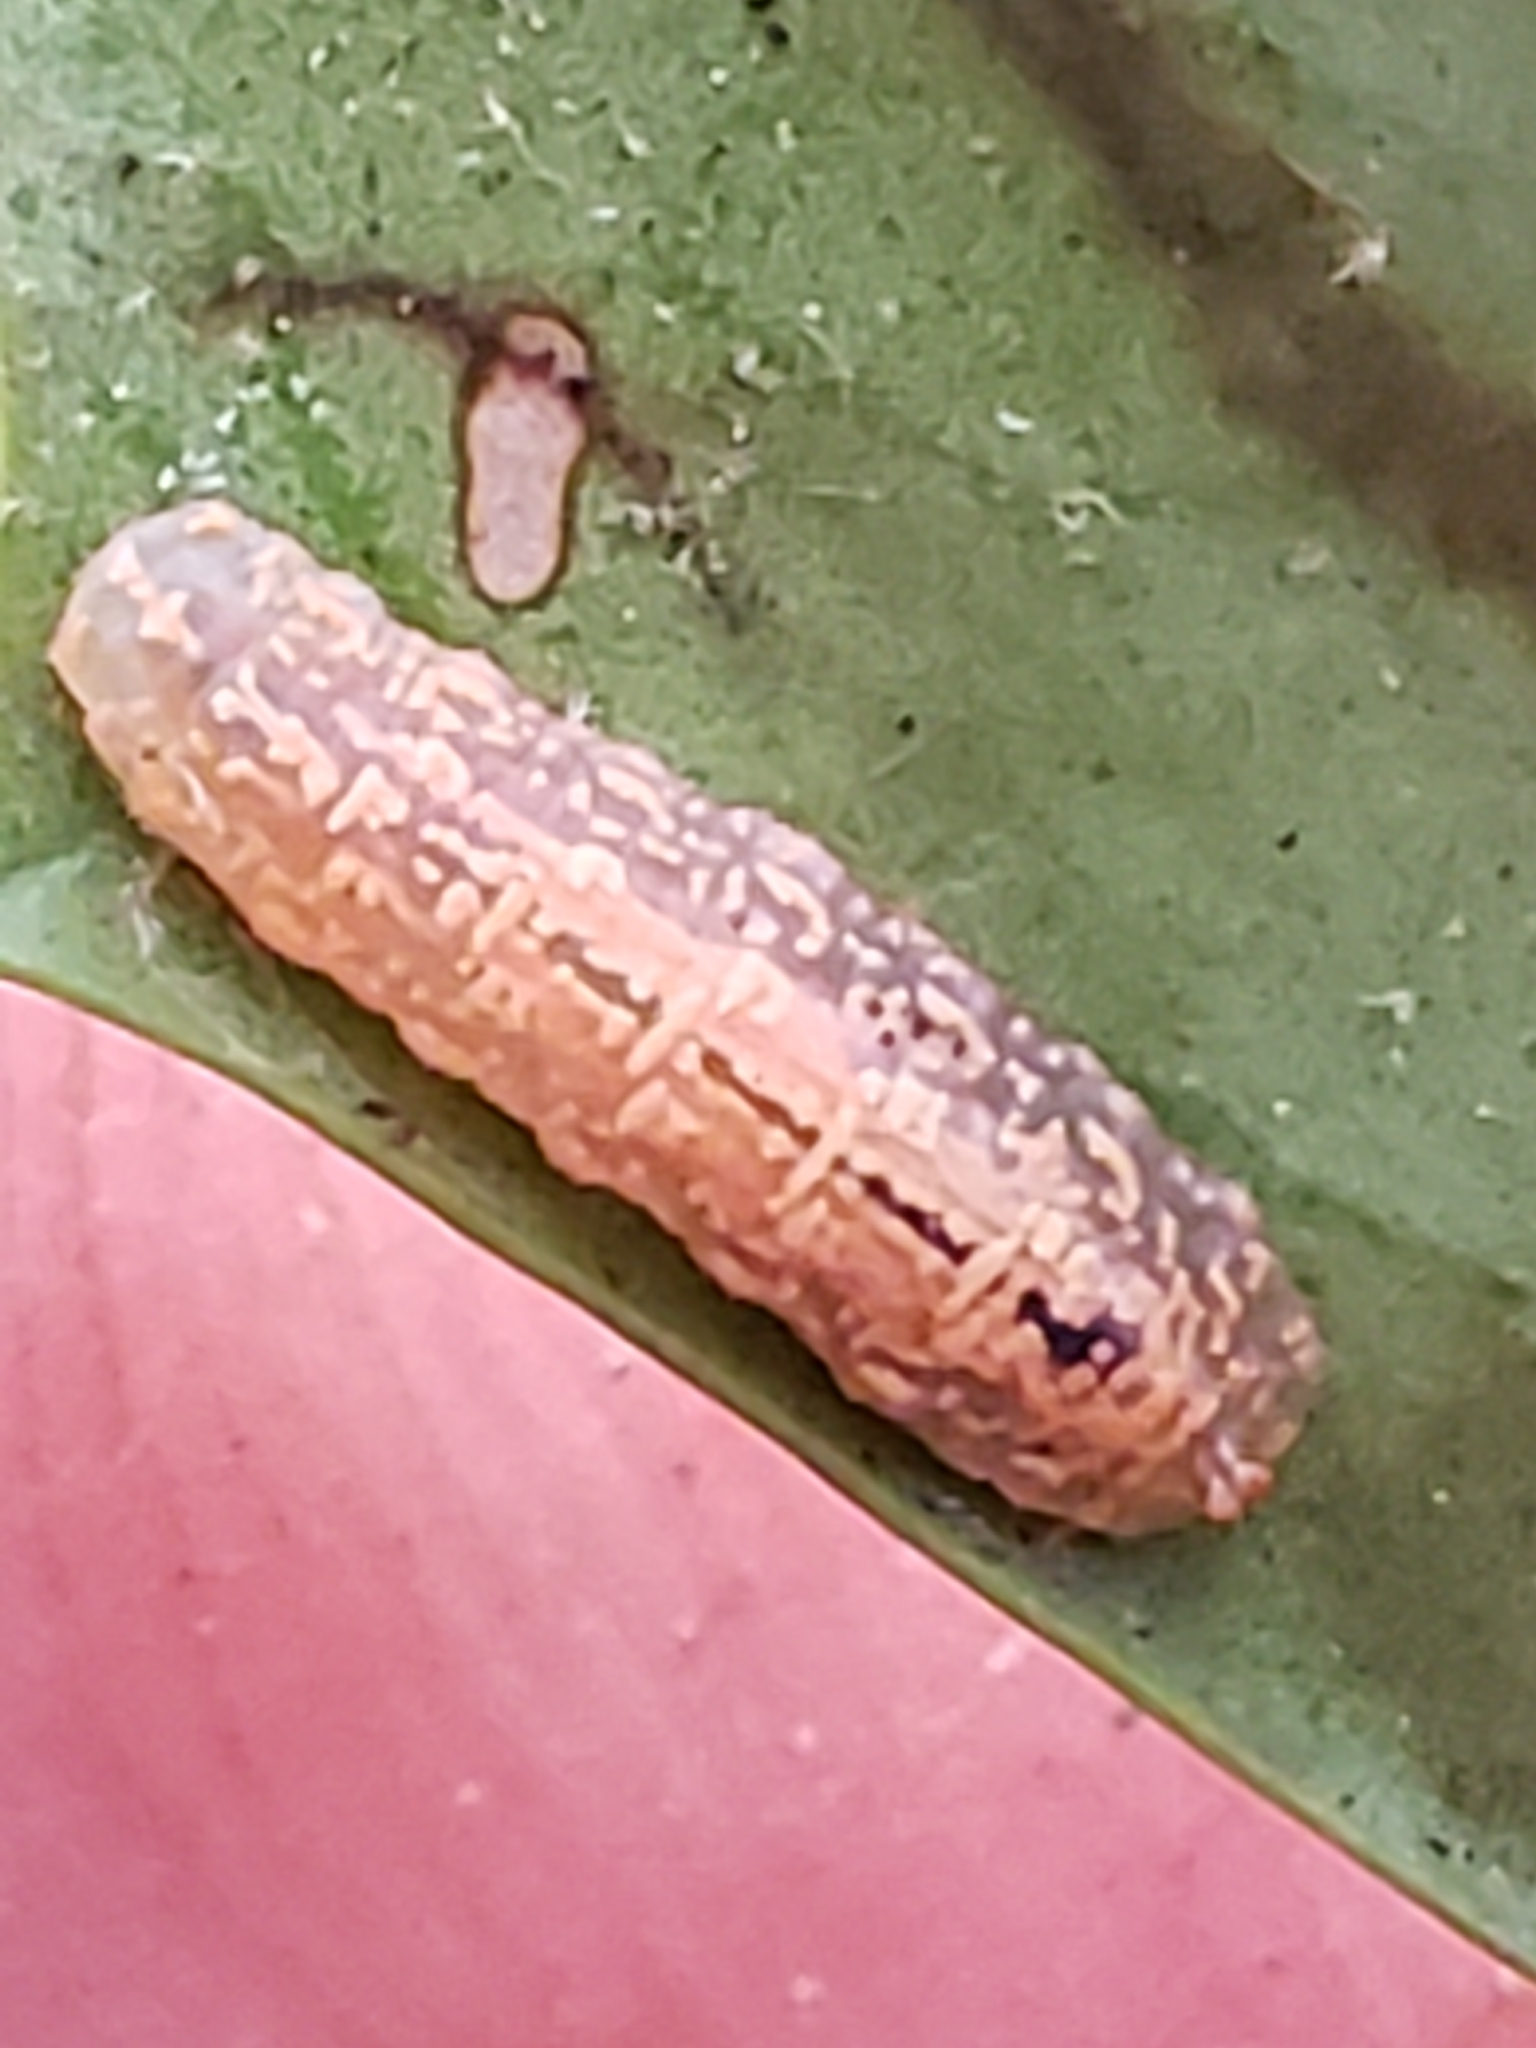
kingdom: Animalia
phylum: Arthropoda
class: Insecta
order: Diptera
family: Syrphidae
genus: Syrphus
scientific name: Syrphus
